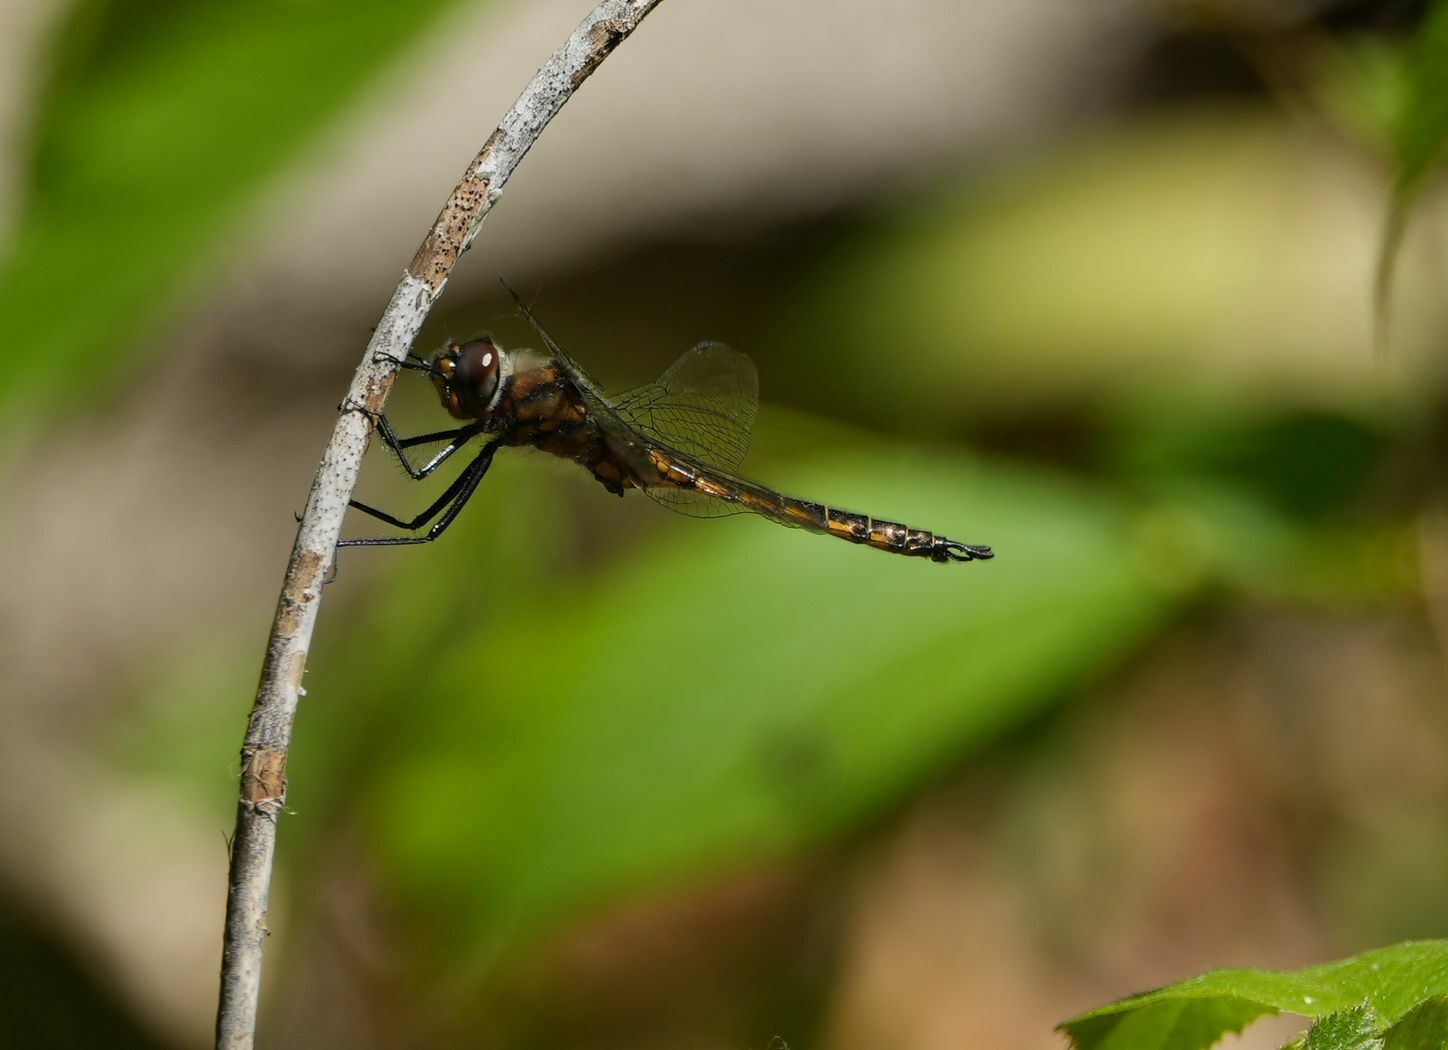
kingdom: Animalia
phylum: Arthropoda
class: Insecta
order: Odonata
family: Corduliidae
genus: Epitheca
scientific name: Epitheca spinigera
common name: Spiny baskettail
